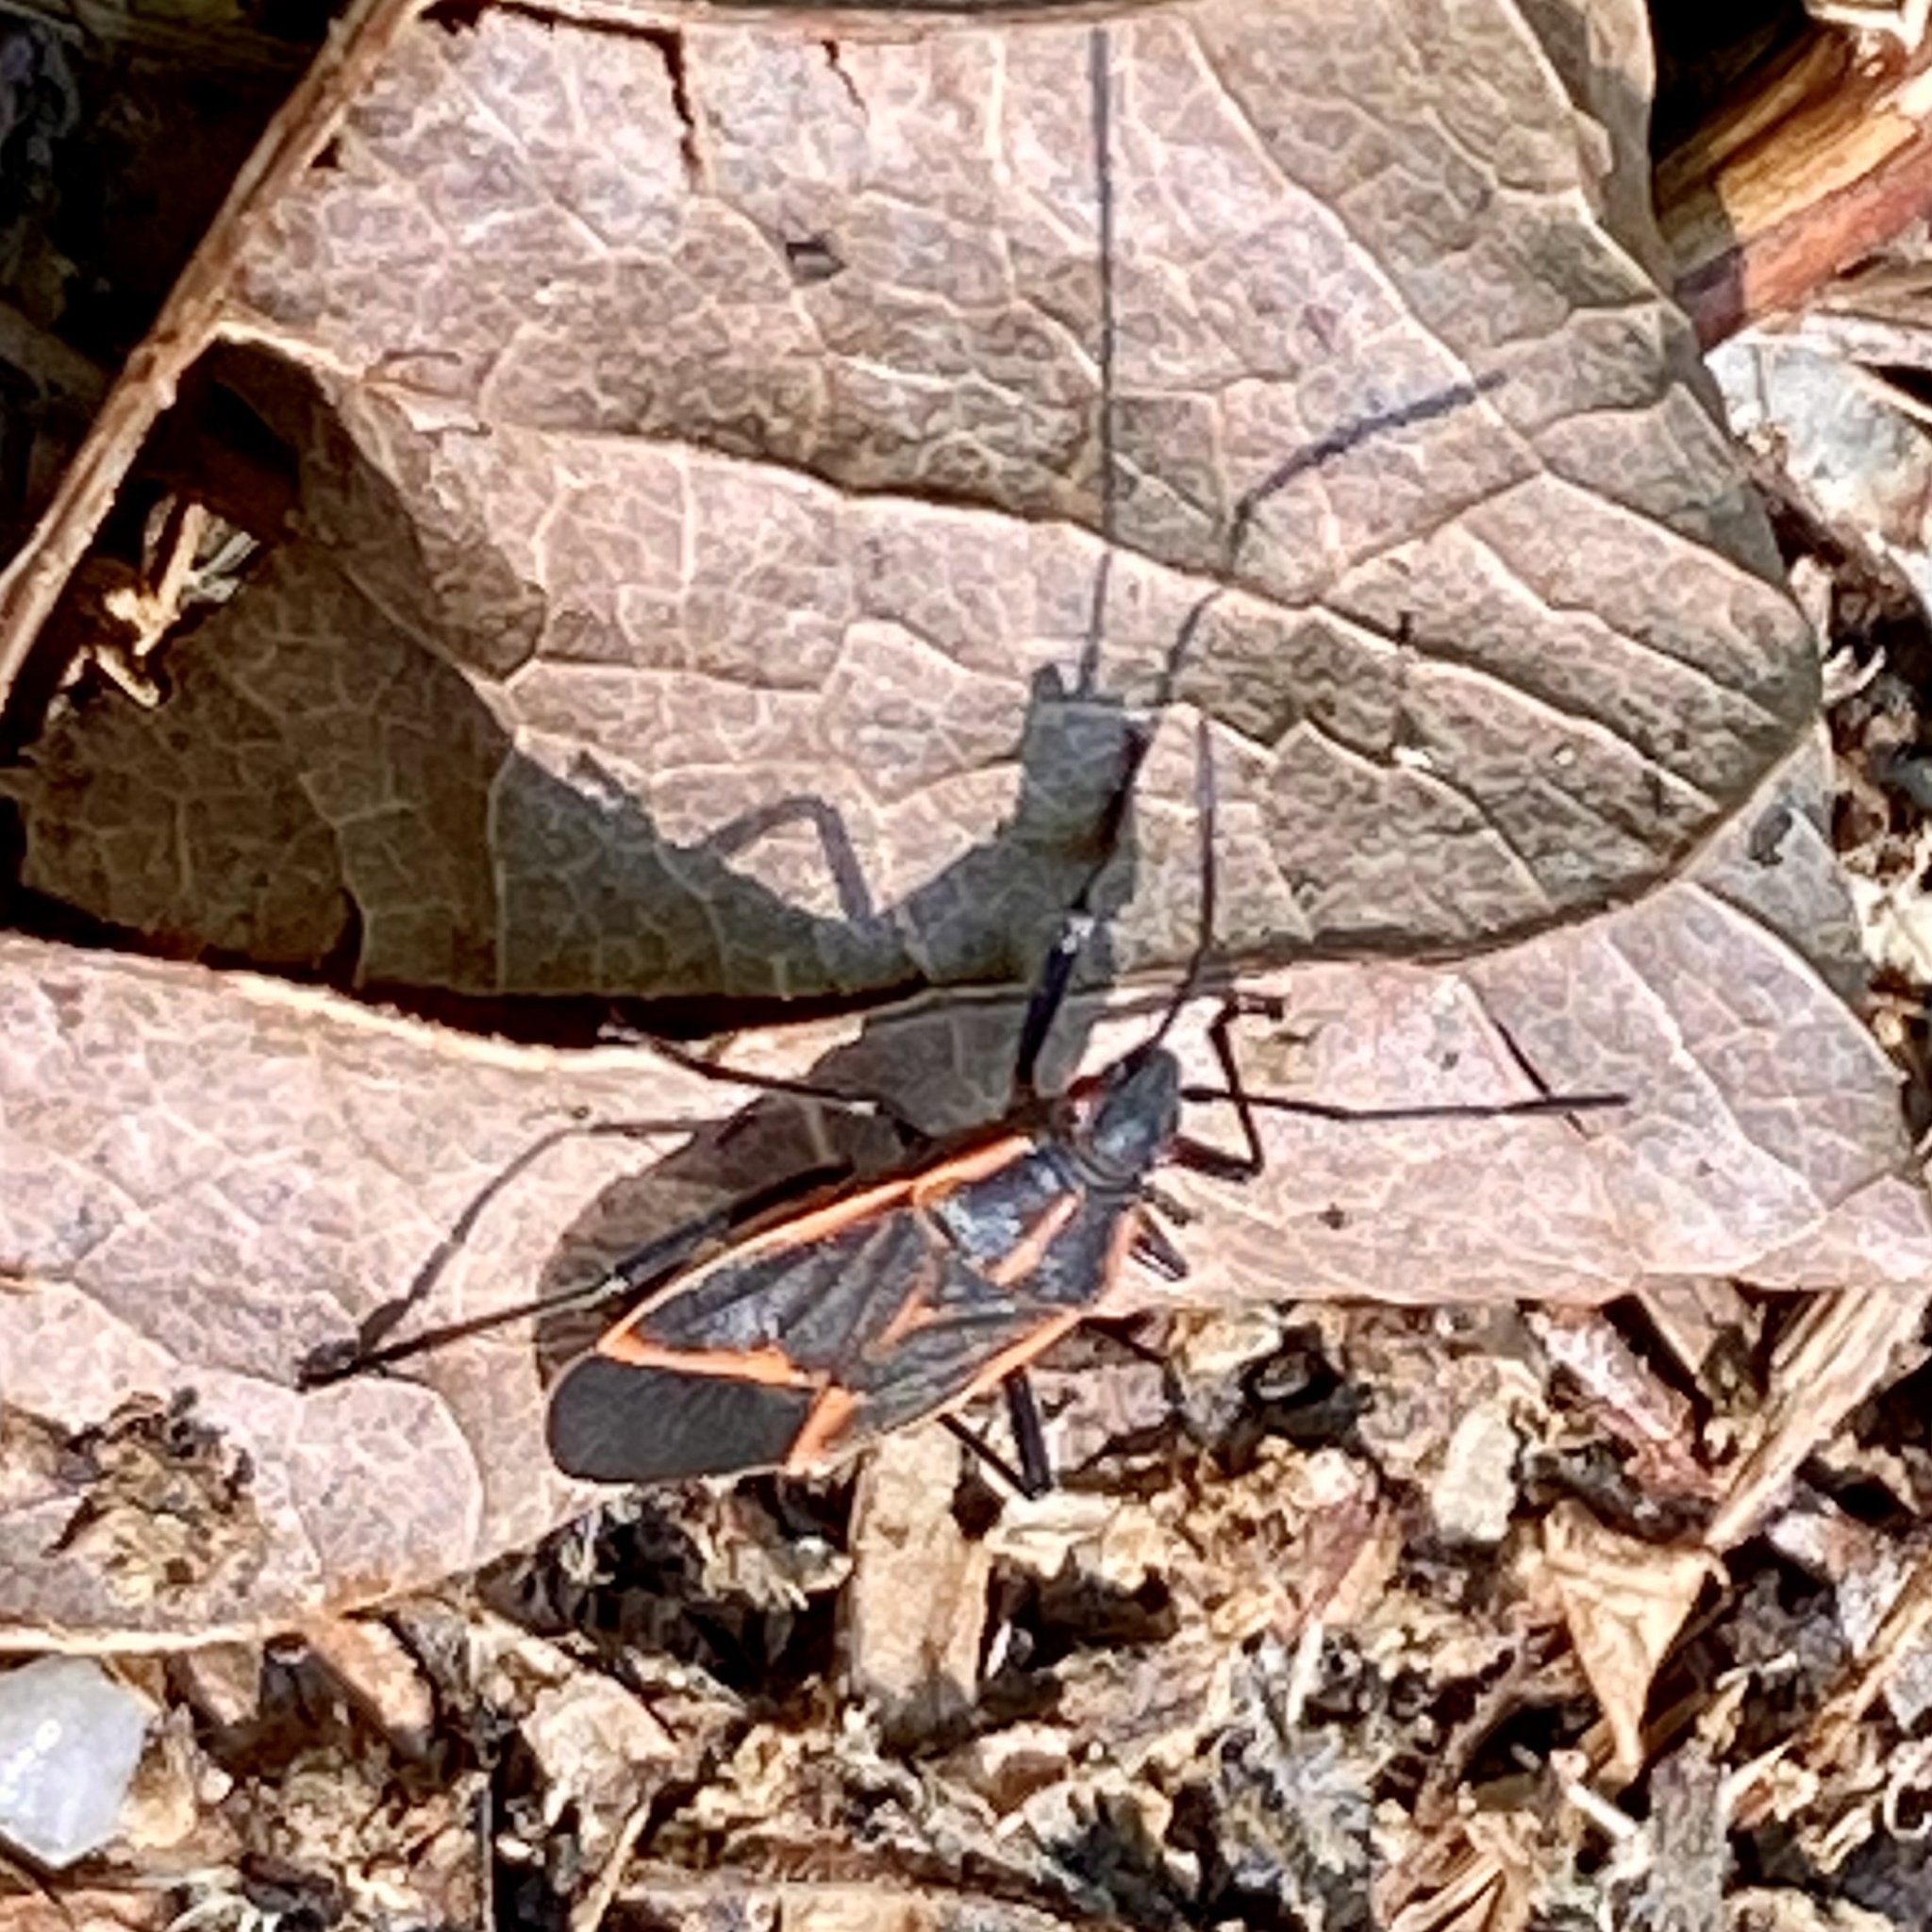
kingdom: Animalia
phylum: Arthropoda
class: Insecta
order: Hemiptera
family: Rhopalidae
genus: Boisea
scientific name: Boisea trivittata
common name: Boxelder bug
